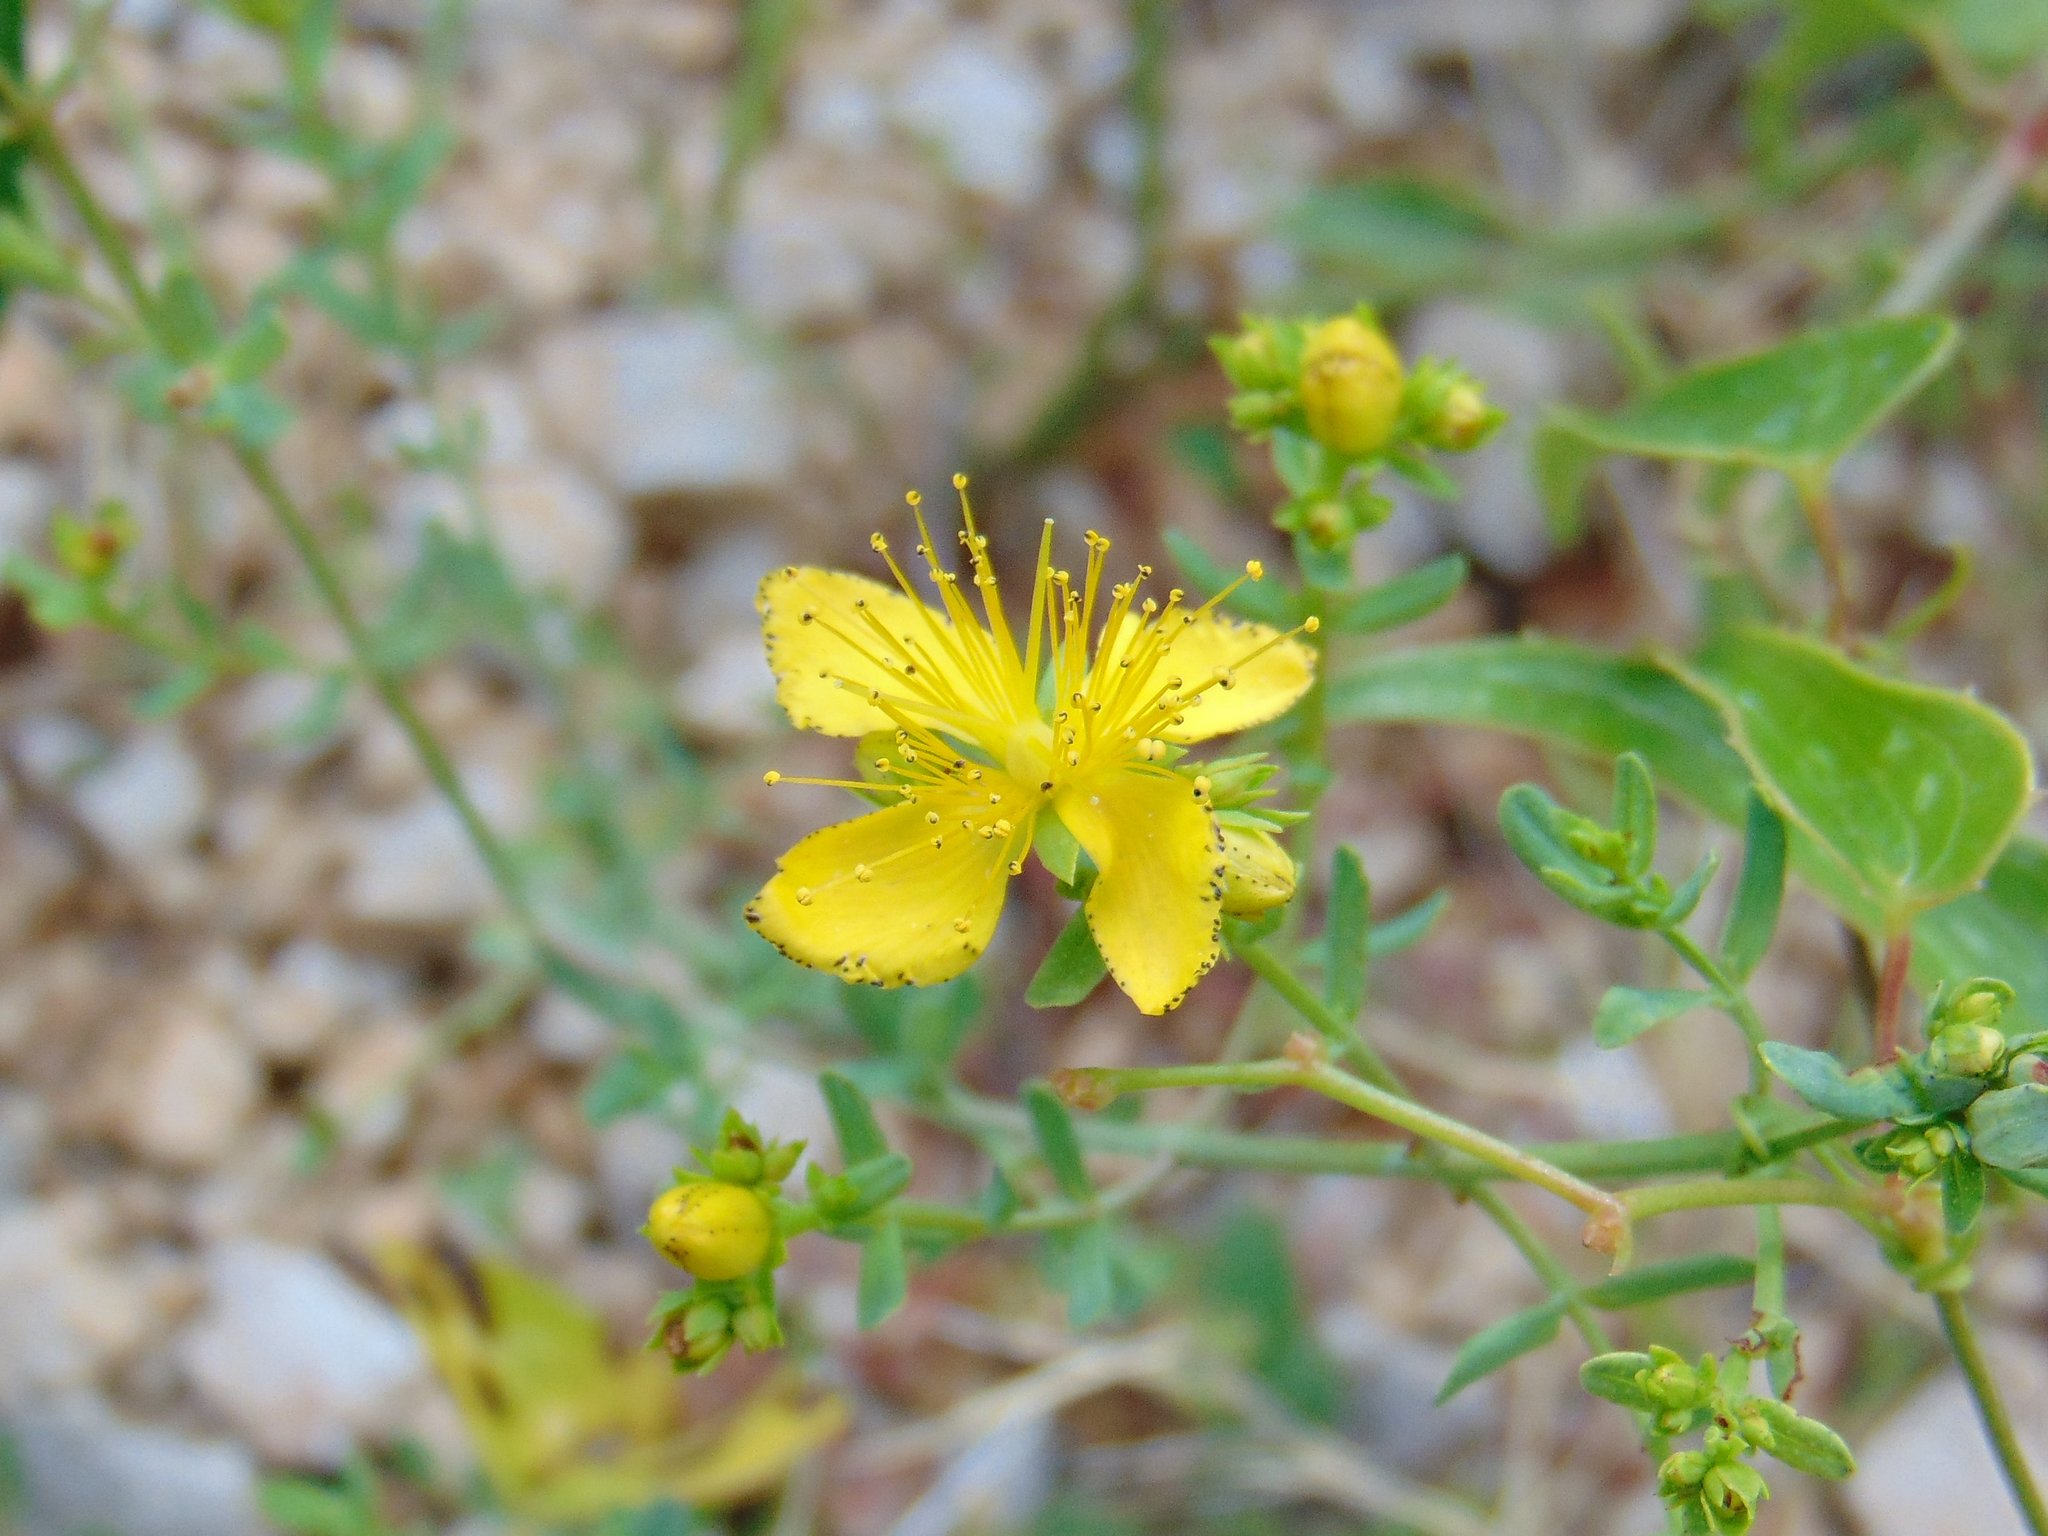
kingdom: Plantae
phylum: Tracheophyta
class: Magnoliopsida
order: Malpighiales
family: Hypericaceae
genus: Hypericum
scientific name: Hypericum perforatum
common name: Common st. johnswort
